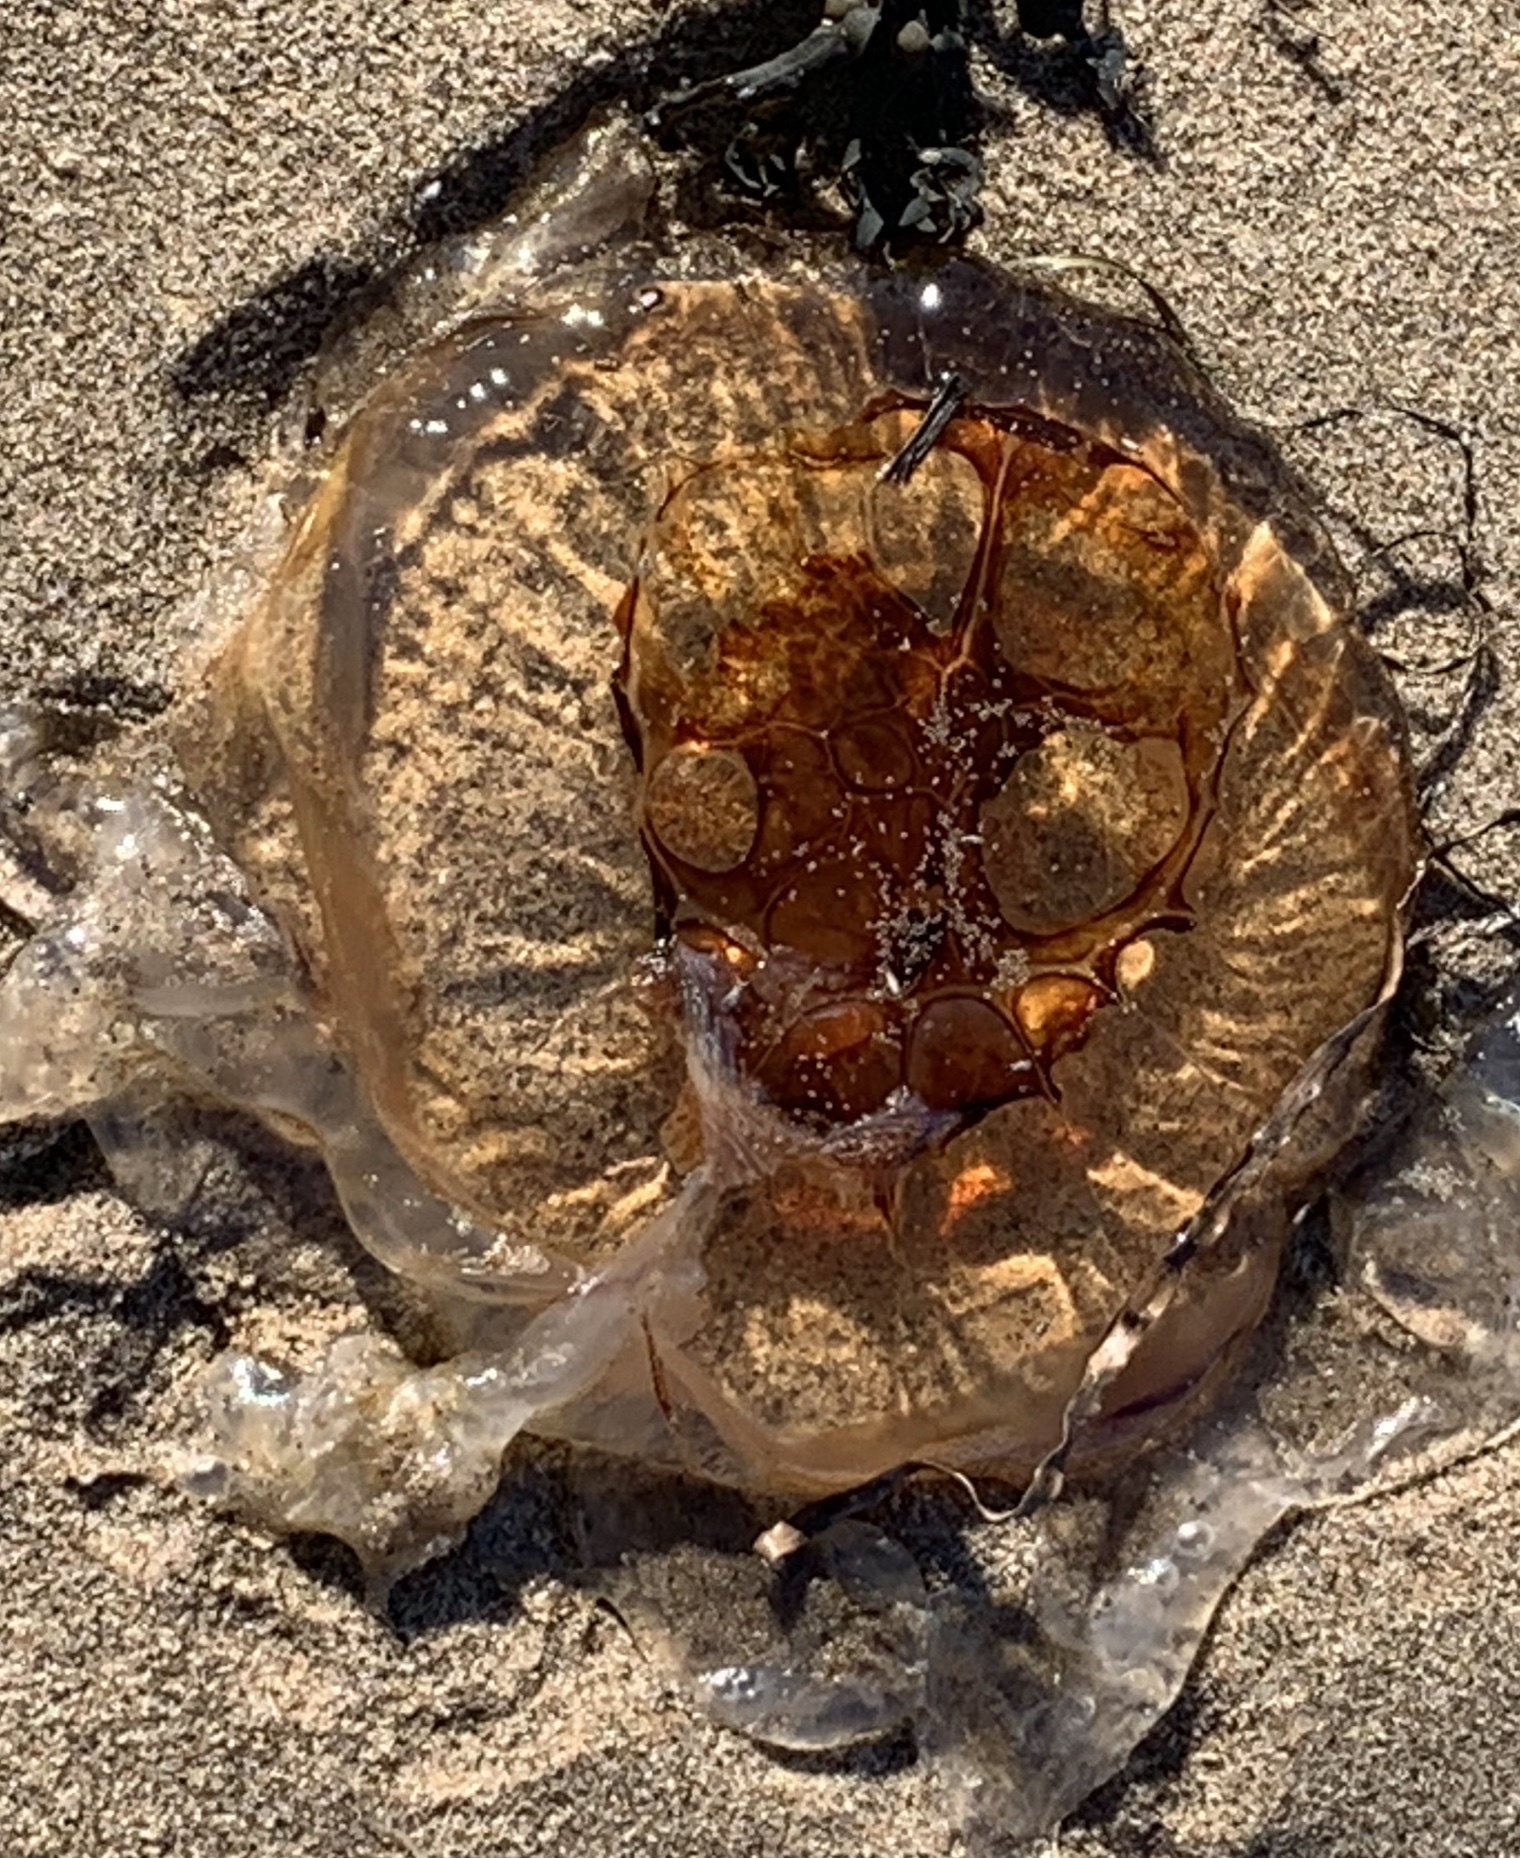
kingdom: Animalia
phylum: Cnidaria
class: Scyphozoa
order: Semaeostomeae
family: Cyaneidae
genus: Cyanea
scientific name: Cyanea
